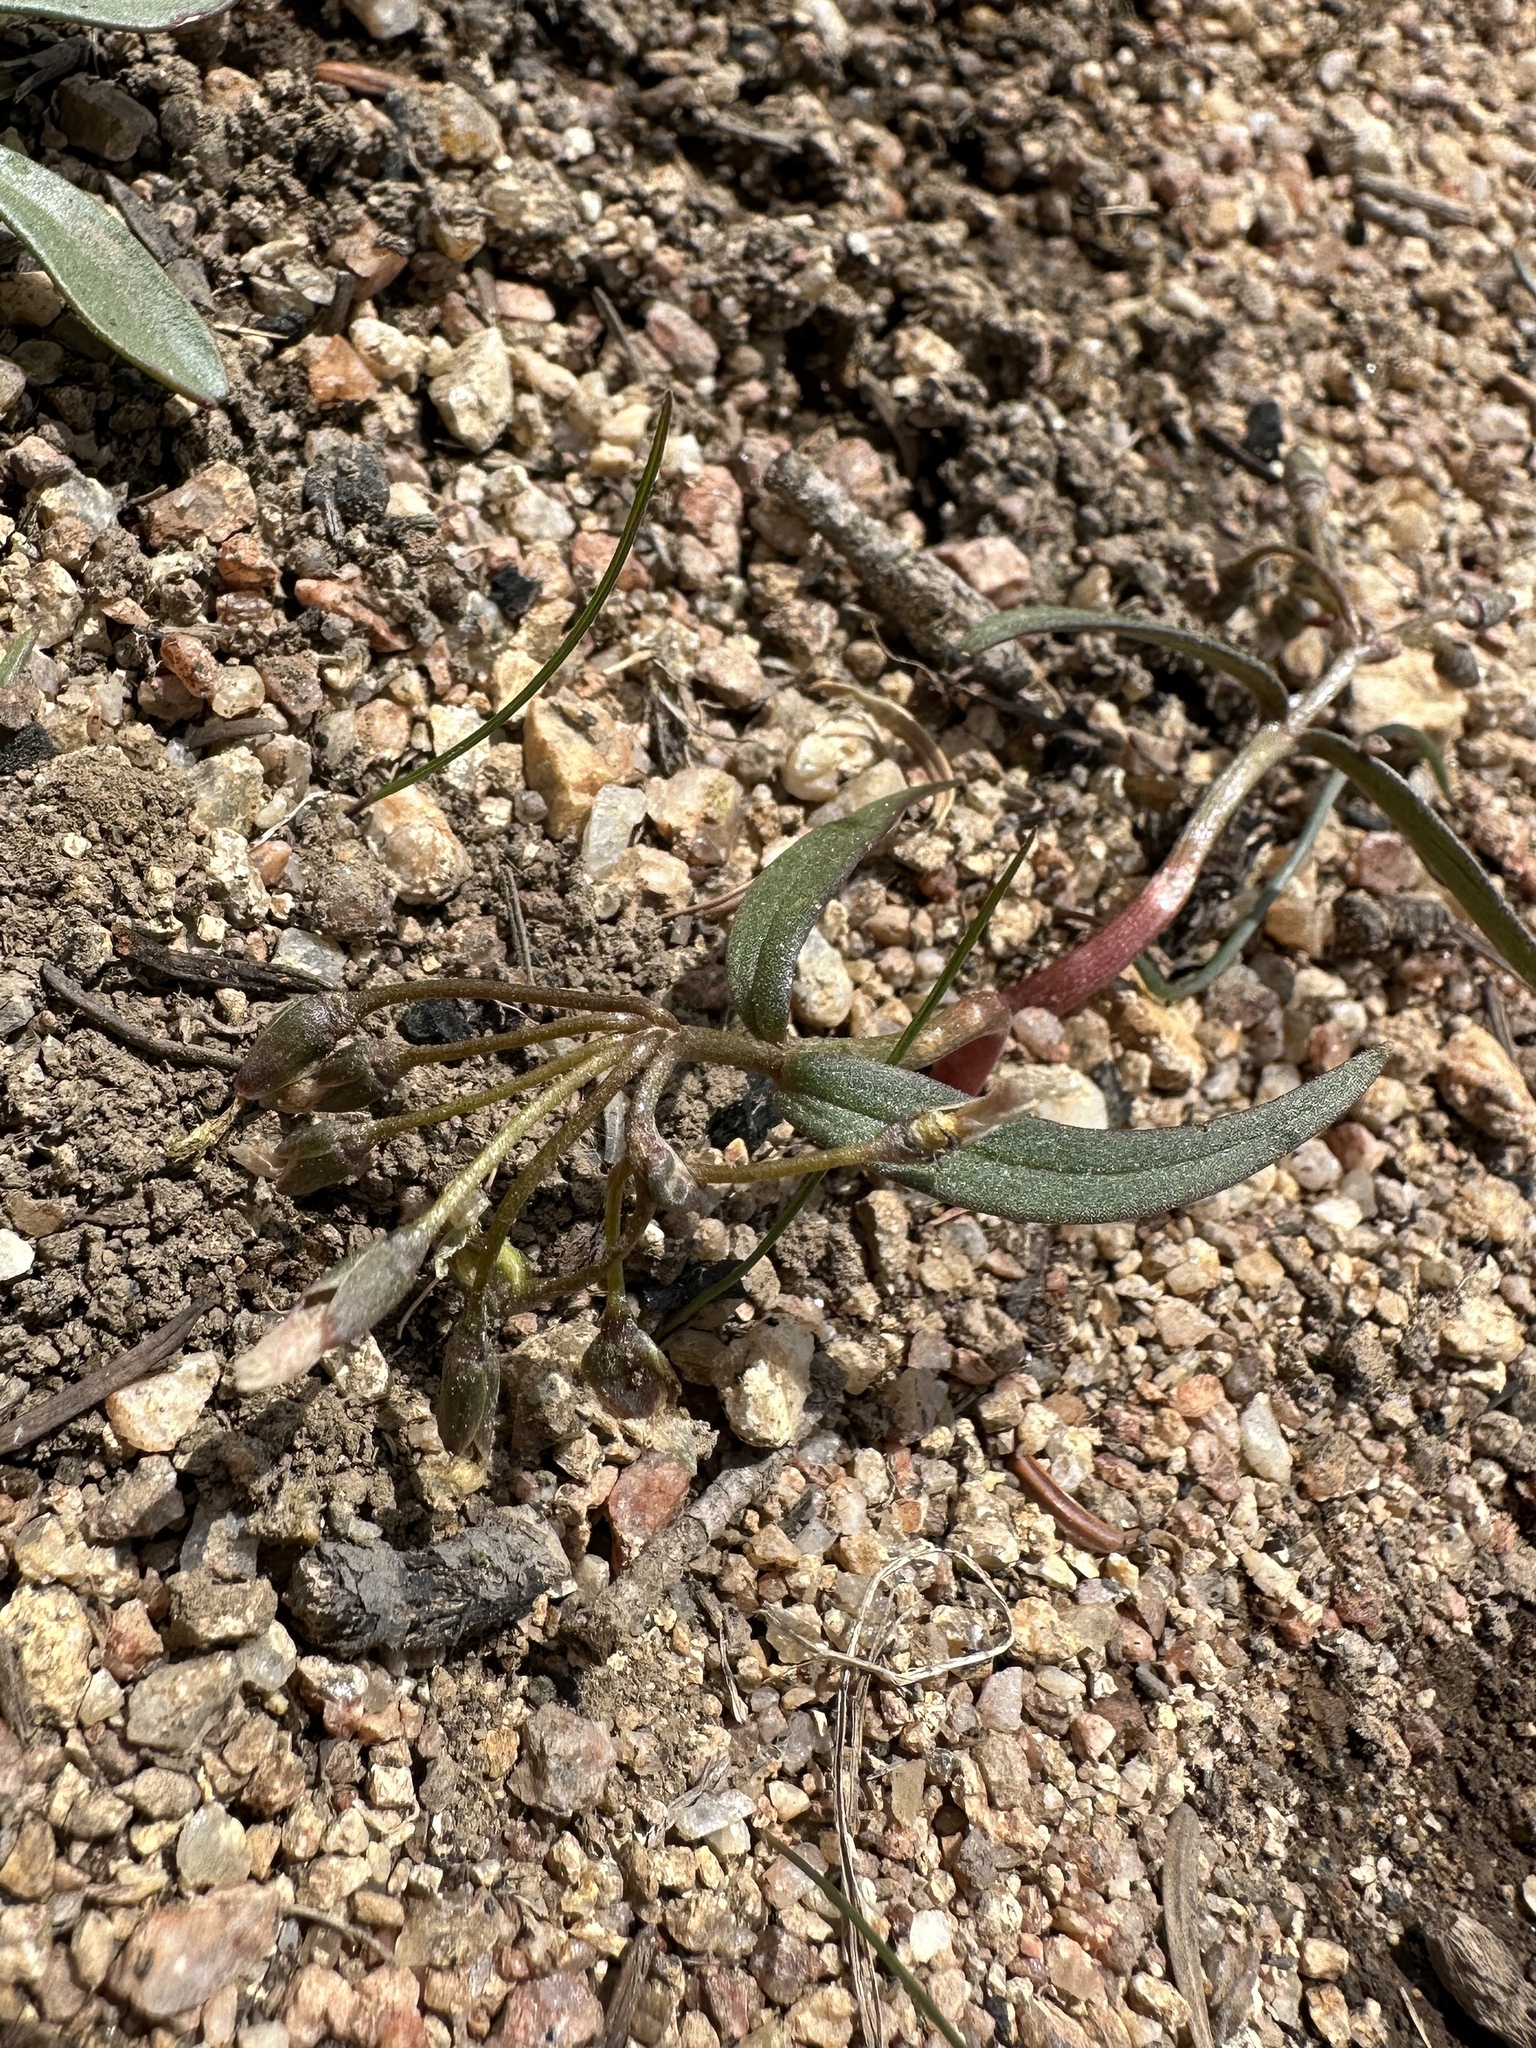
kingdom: Plantae
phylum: Tracheophyta
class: Magnoliopsida
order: Caryophyllales
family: Montiaceae
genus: Claytonia
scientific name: Claytonia lanceolata
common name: Western spring-beauty
